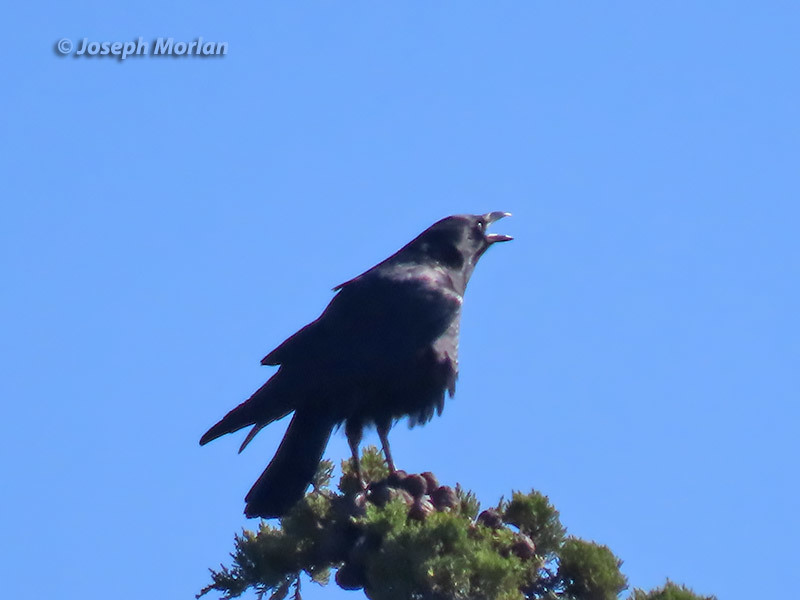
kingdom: Animalia
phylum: Chordata
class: Aves
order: Passeriformes
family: Corvidae
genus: Corvus
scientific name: Corvus brachyrhynchos
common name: American crow
